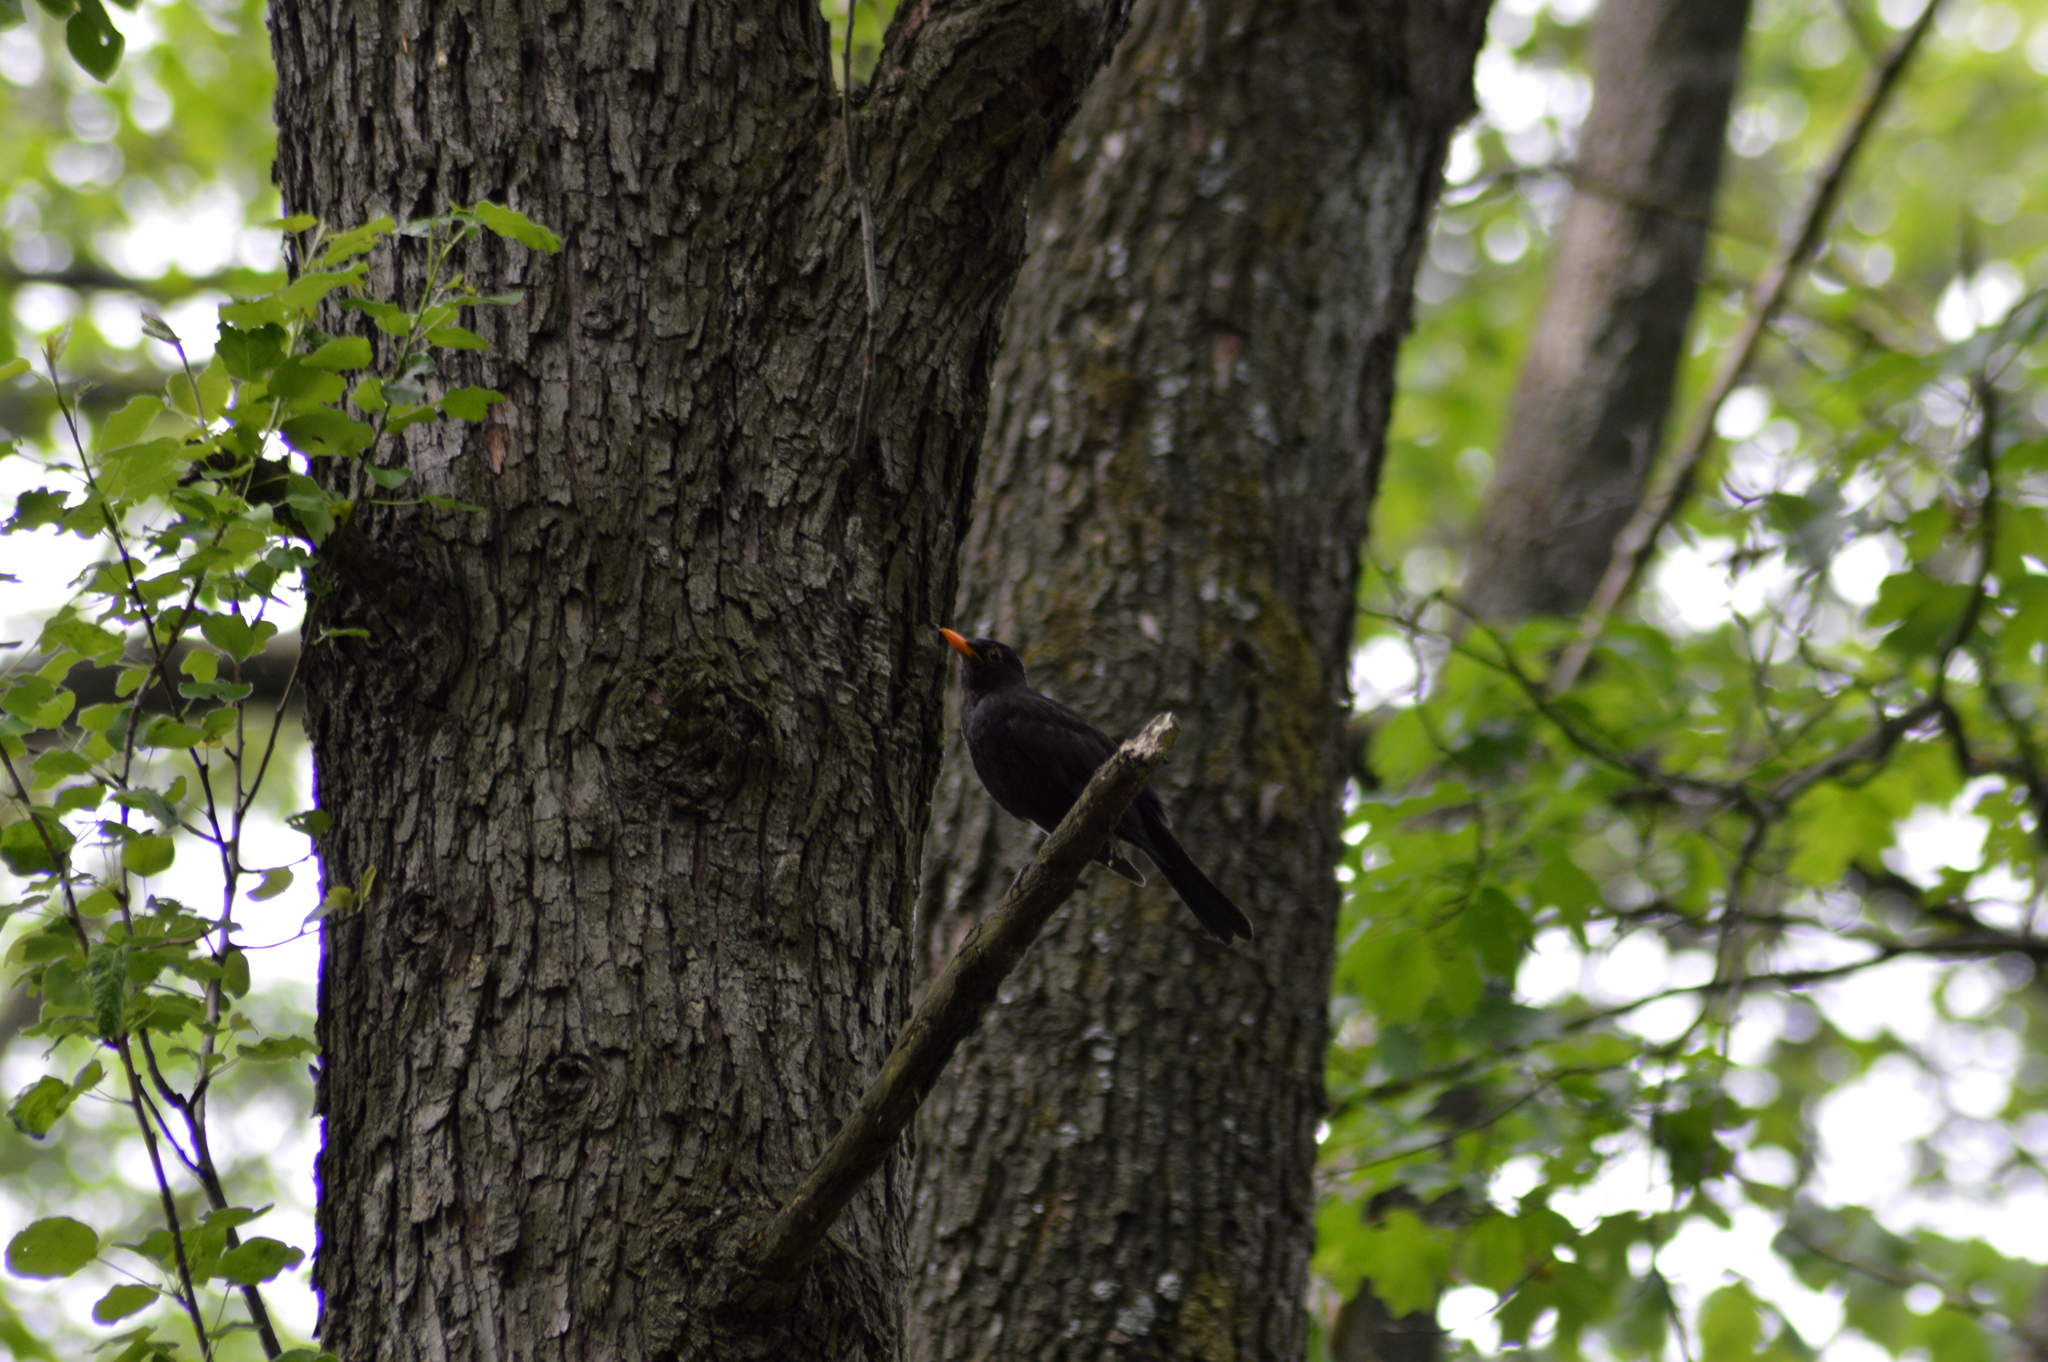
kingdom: Animalia
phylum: Chordata
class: Aves
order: Passeriformes
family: Turdidae
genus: Turdus
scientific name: Turdus merula
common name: Common blackbird
